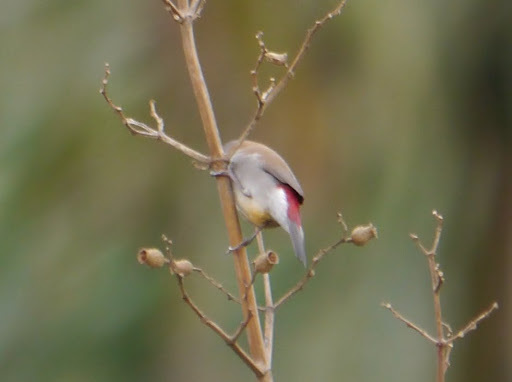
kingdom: Animalia
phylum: Chordata
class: Aves
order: Passeriformes
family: Estrildidae
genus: Estrilda
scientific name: Estrilda melpoda
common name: Orange-cheeked waxbill
